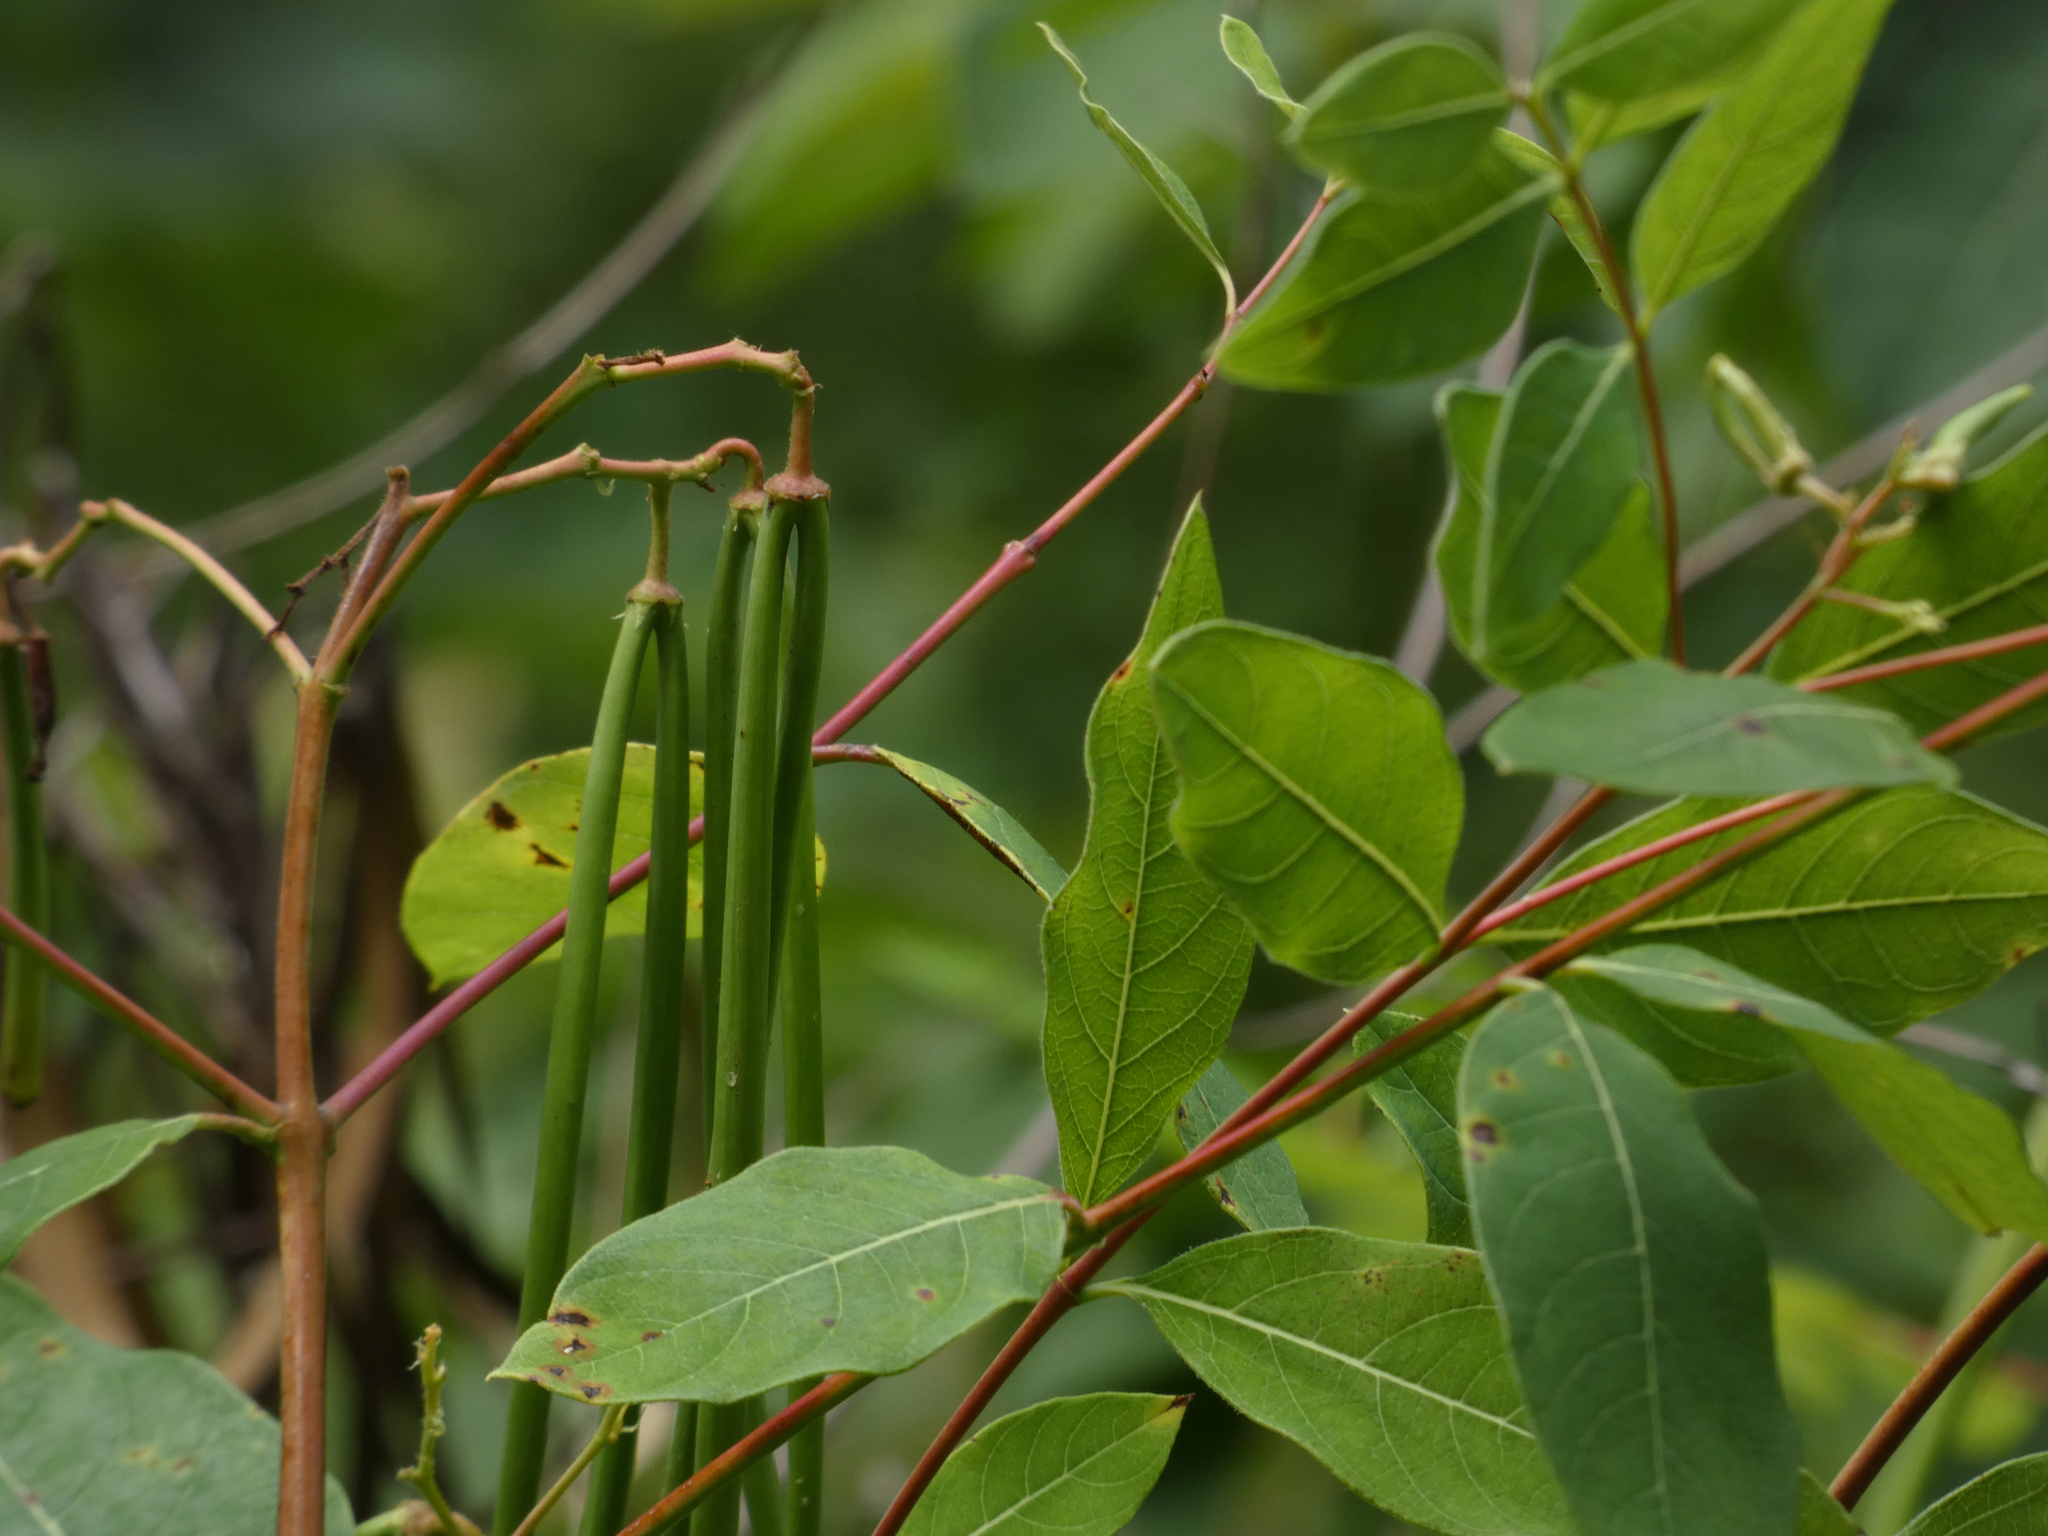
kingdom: Plantae
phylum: Tracheophyta
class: Magnoliopsida
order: Gentianales
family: Apocynaceae
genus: Apocynum
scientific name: Apocynum cannabinum
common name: Hemp dogbane
